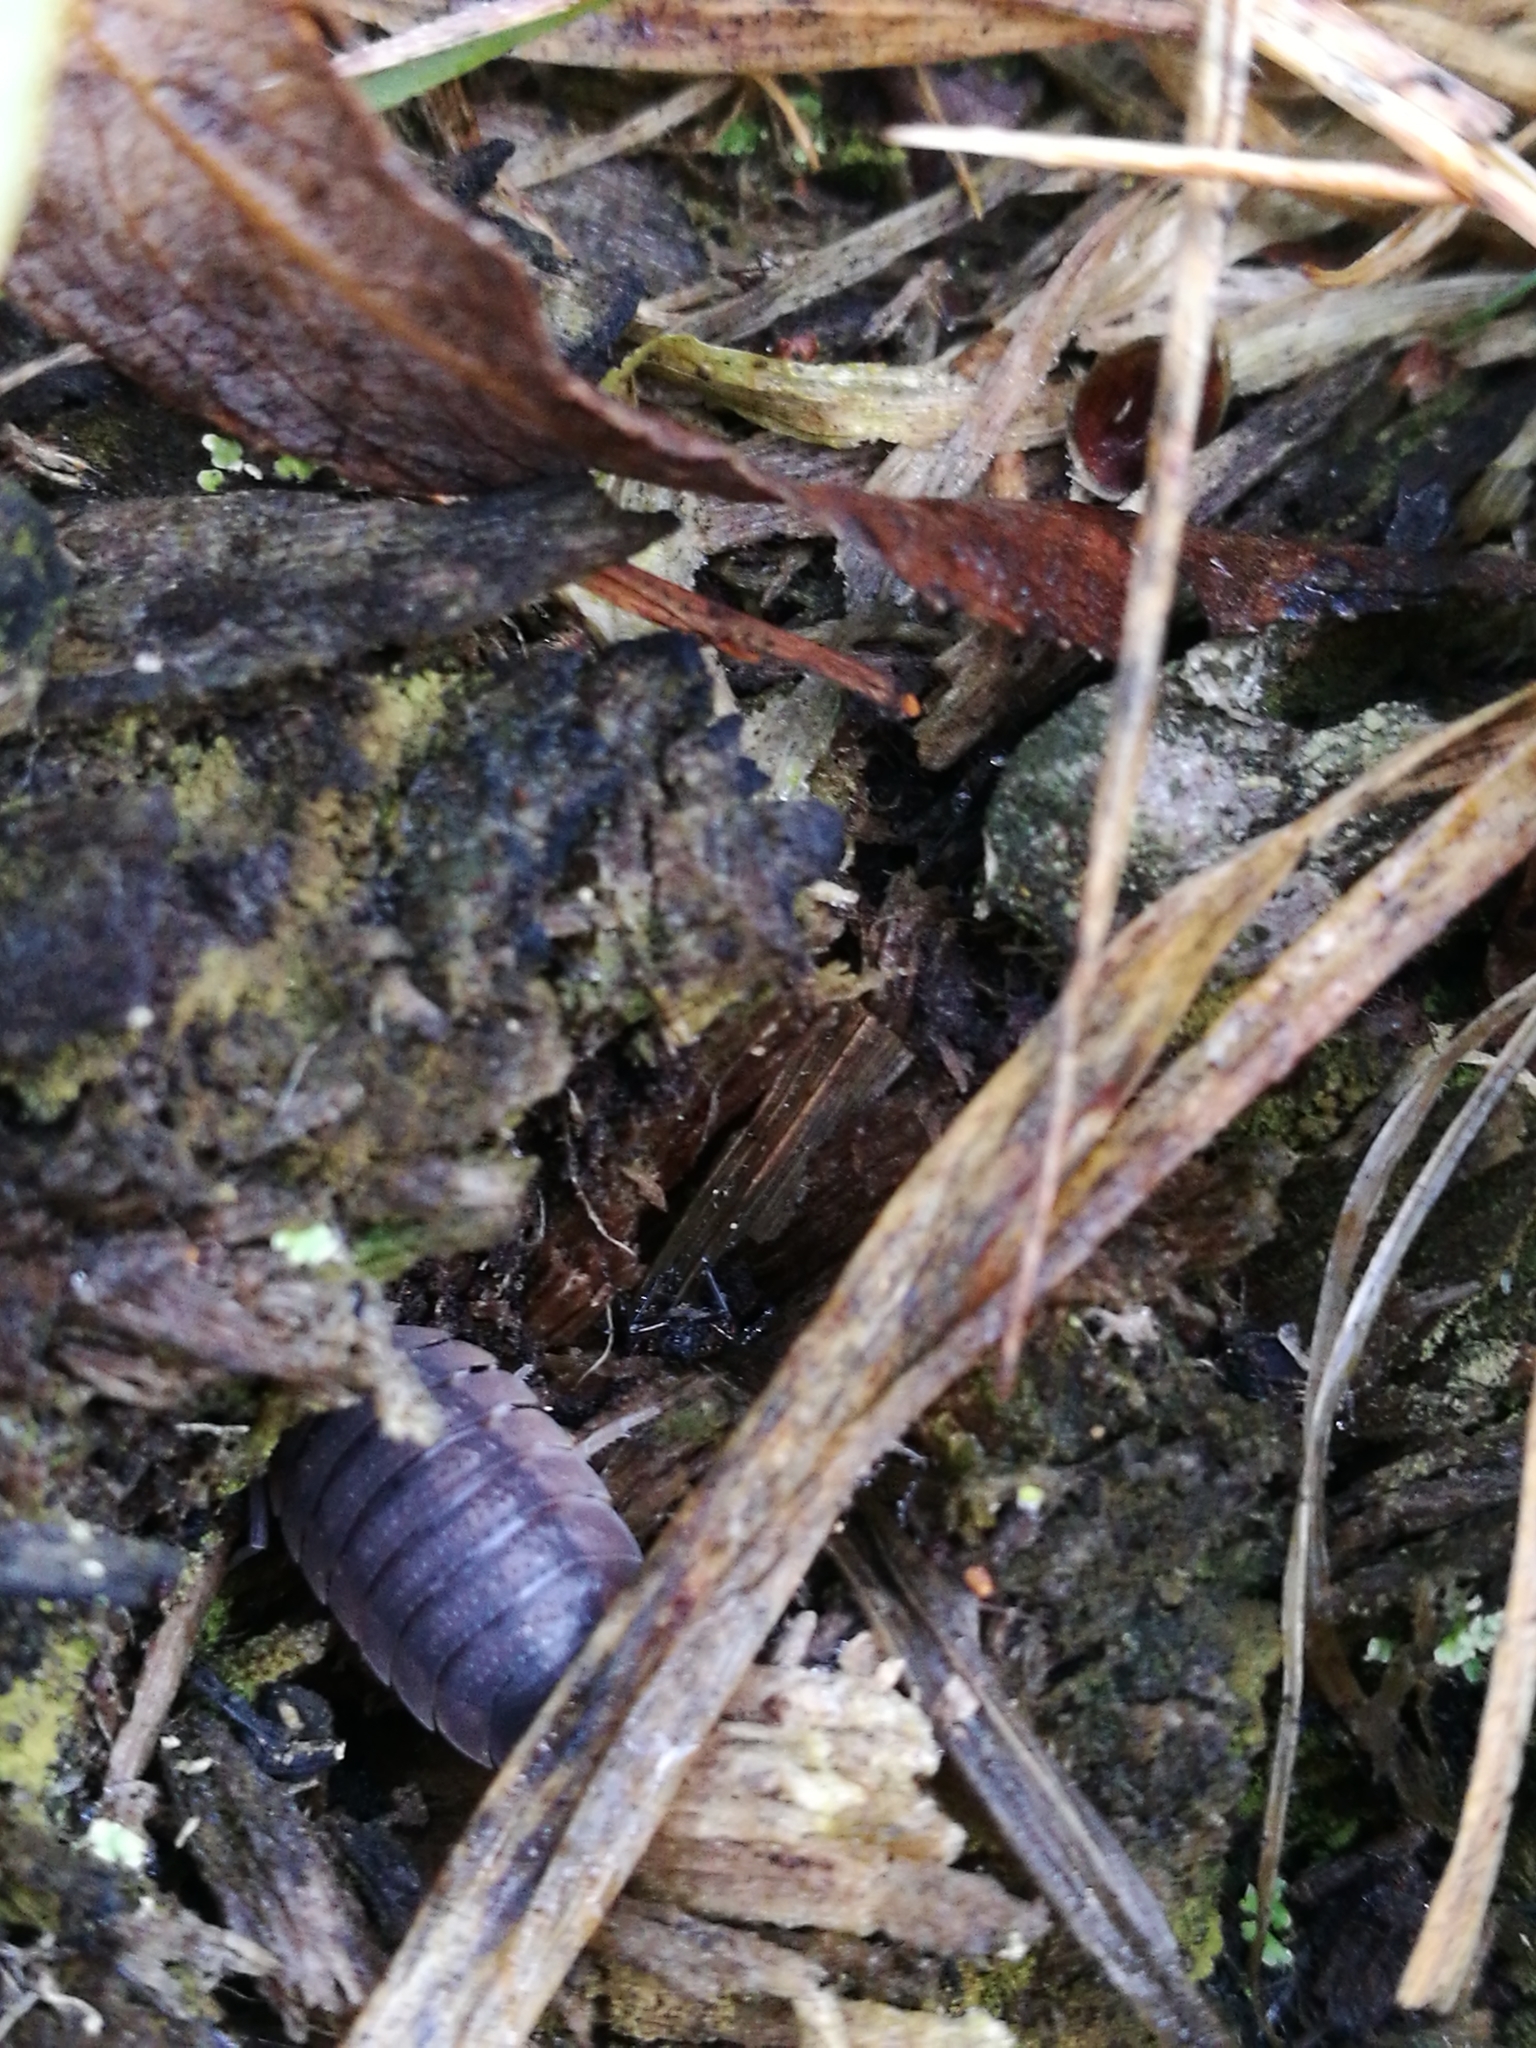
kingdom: Animalia
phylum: Arthropoda
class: Malacostraca
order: Isopoda
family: Porcellionidae
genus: Porcellio
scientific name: Porcellio scaber
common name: Common rough woodlouse
